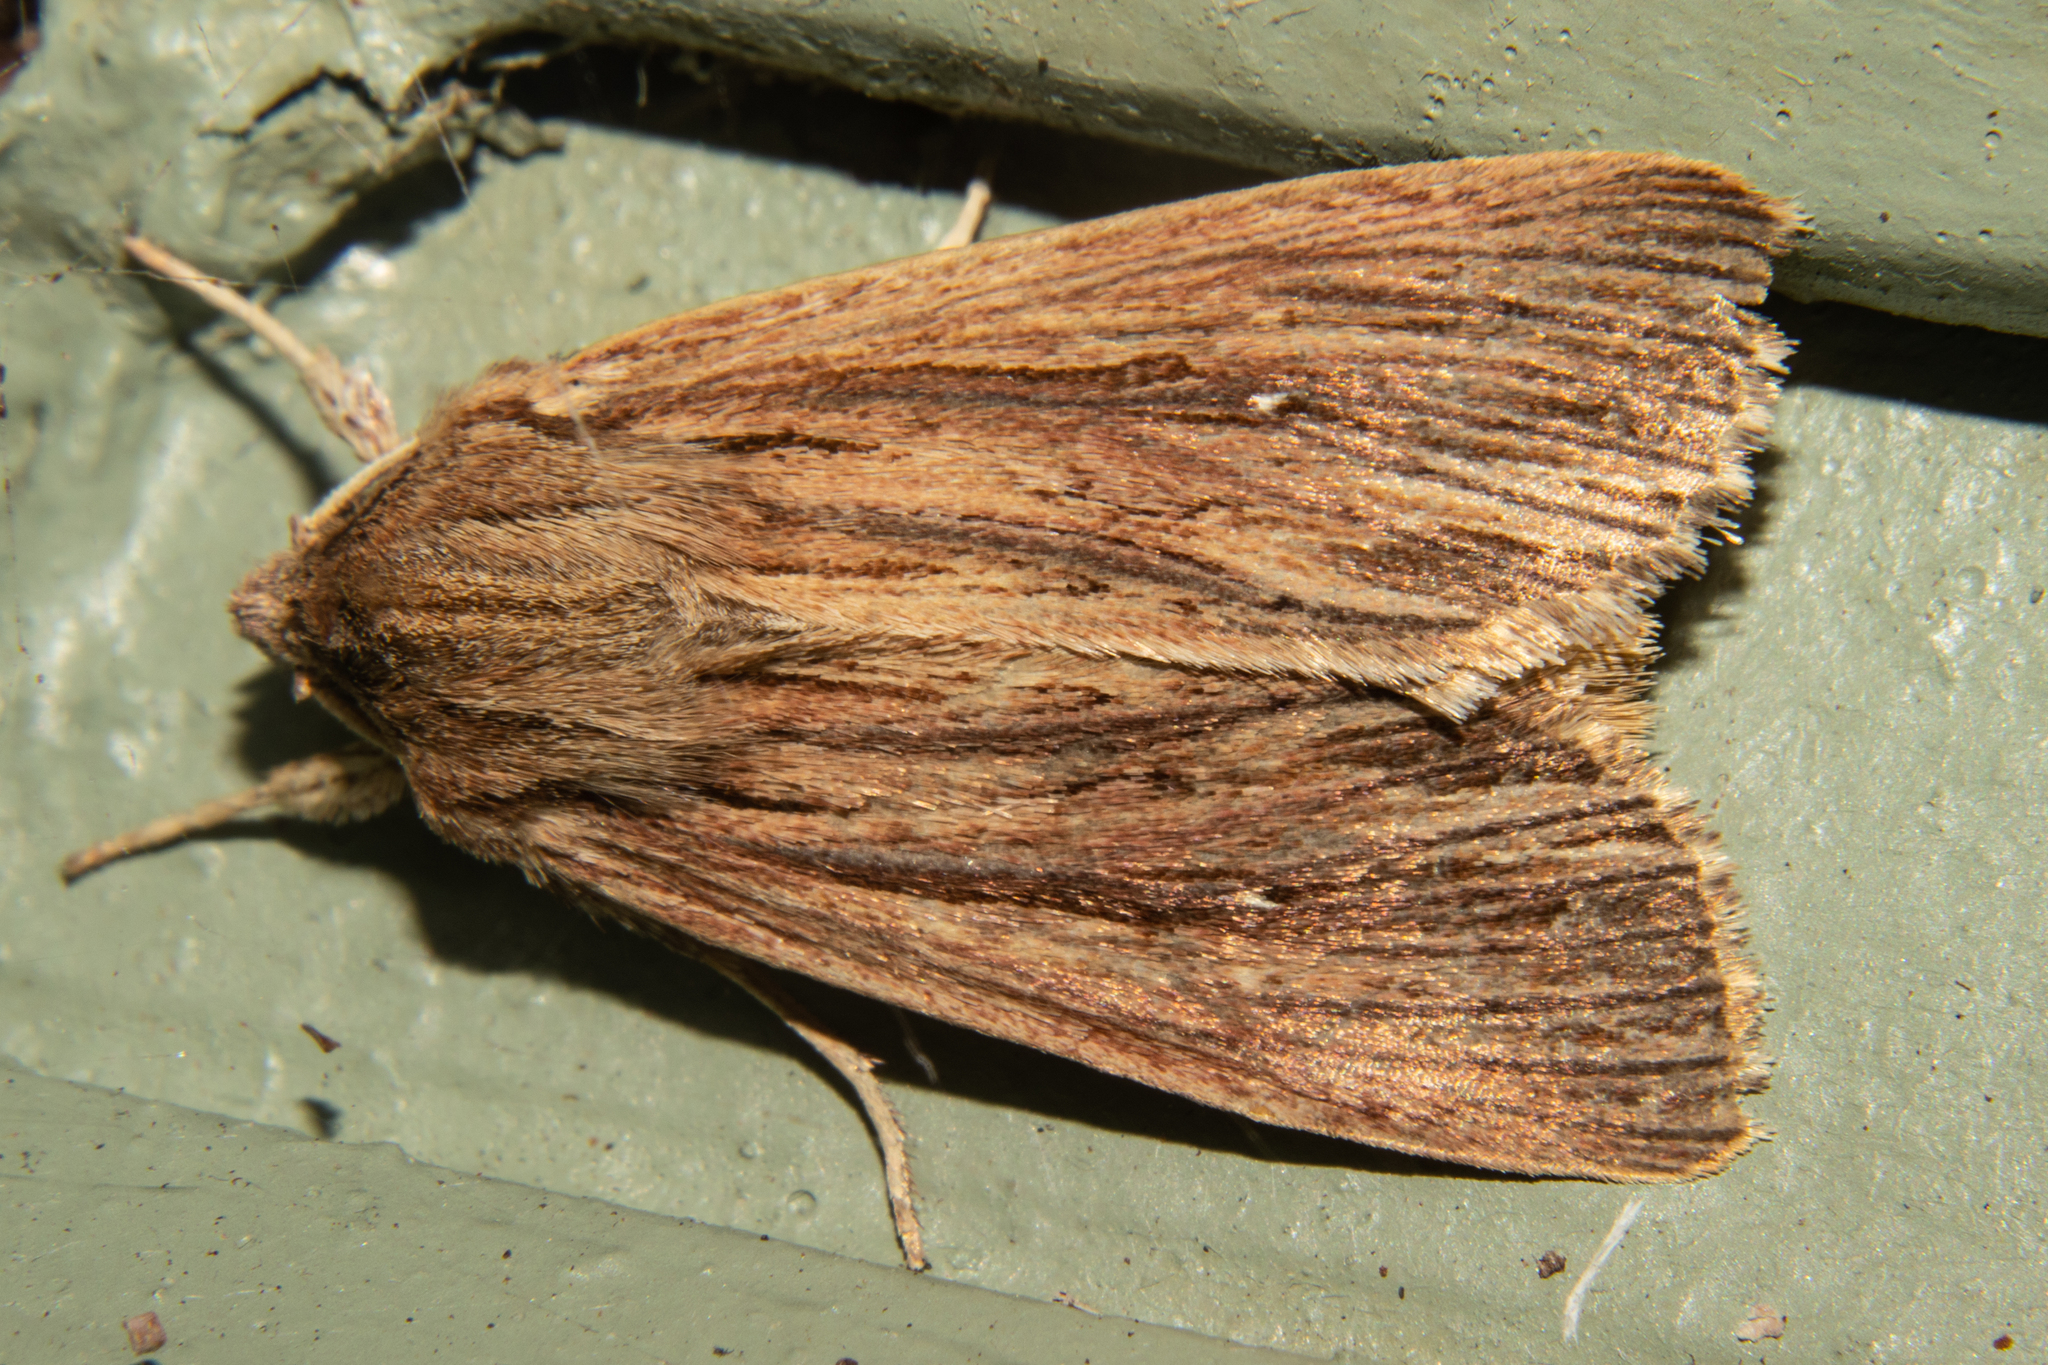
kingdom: Animalia
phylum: Arthropoda
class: Insecta
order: Lepidoptera
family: Noctuidae
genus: Ichneutica
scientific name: Ichneutica
